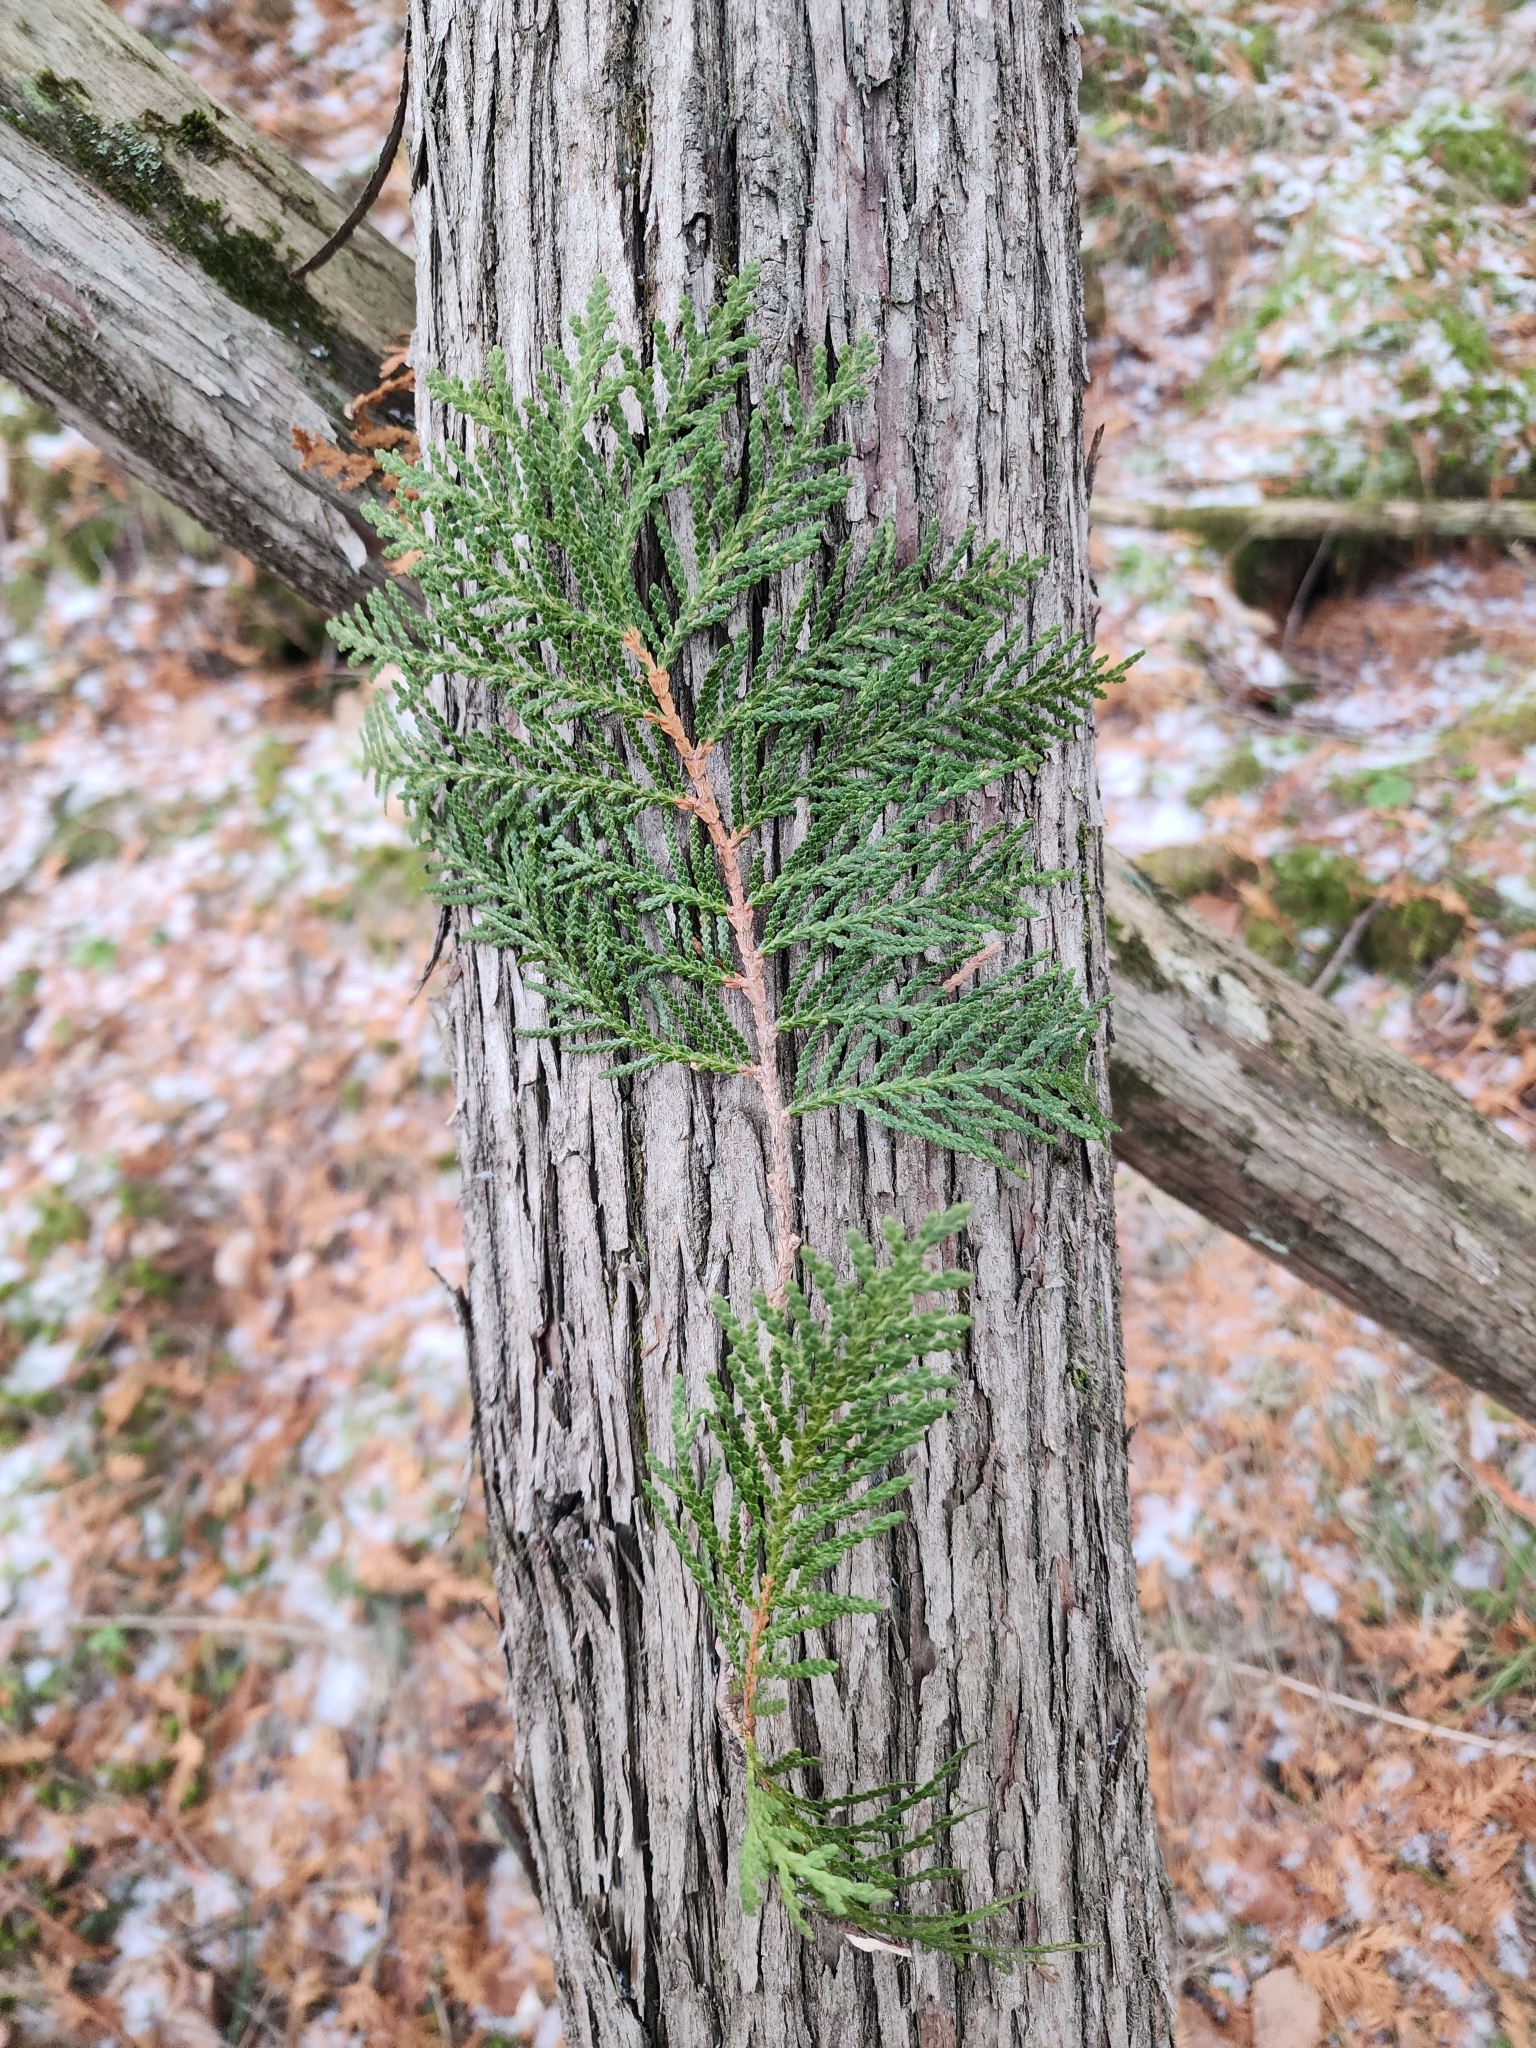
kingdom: Plantae
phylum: Tracheophyta
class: Pinopsida
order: Pinales
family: Cupressaceae
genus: Thuja
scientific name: Thuja occidentalis
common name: Northern white-cedar
